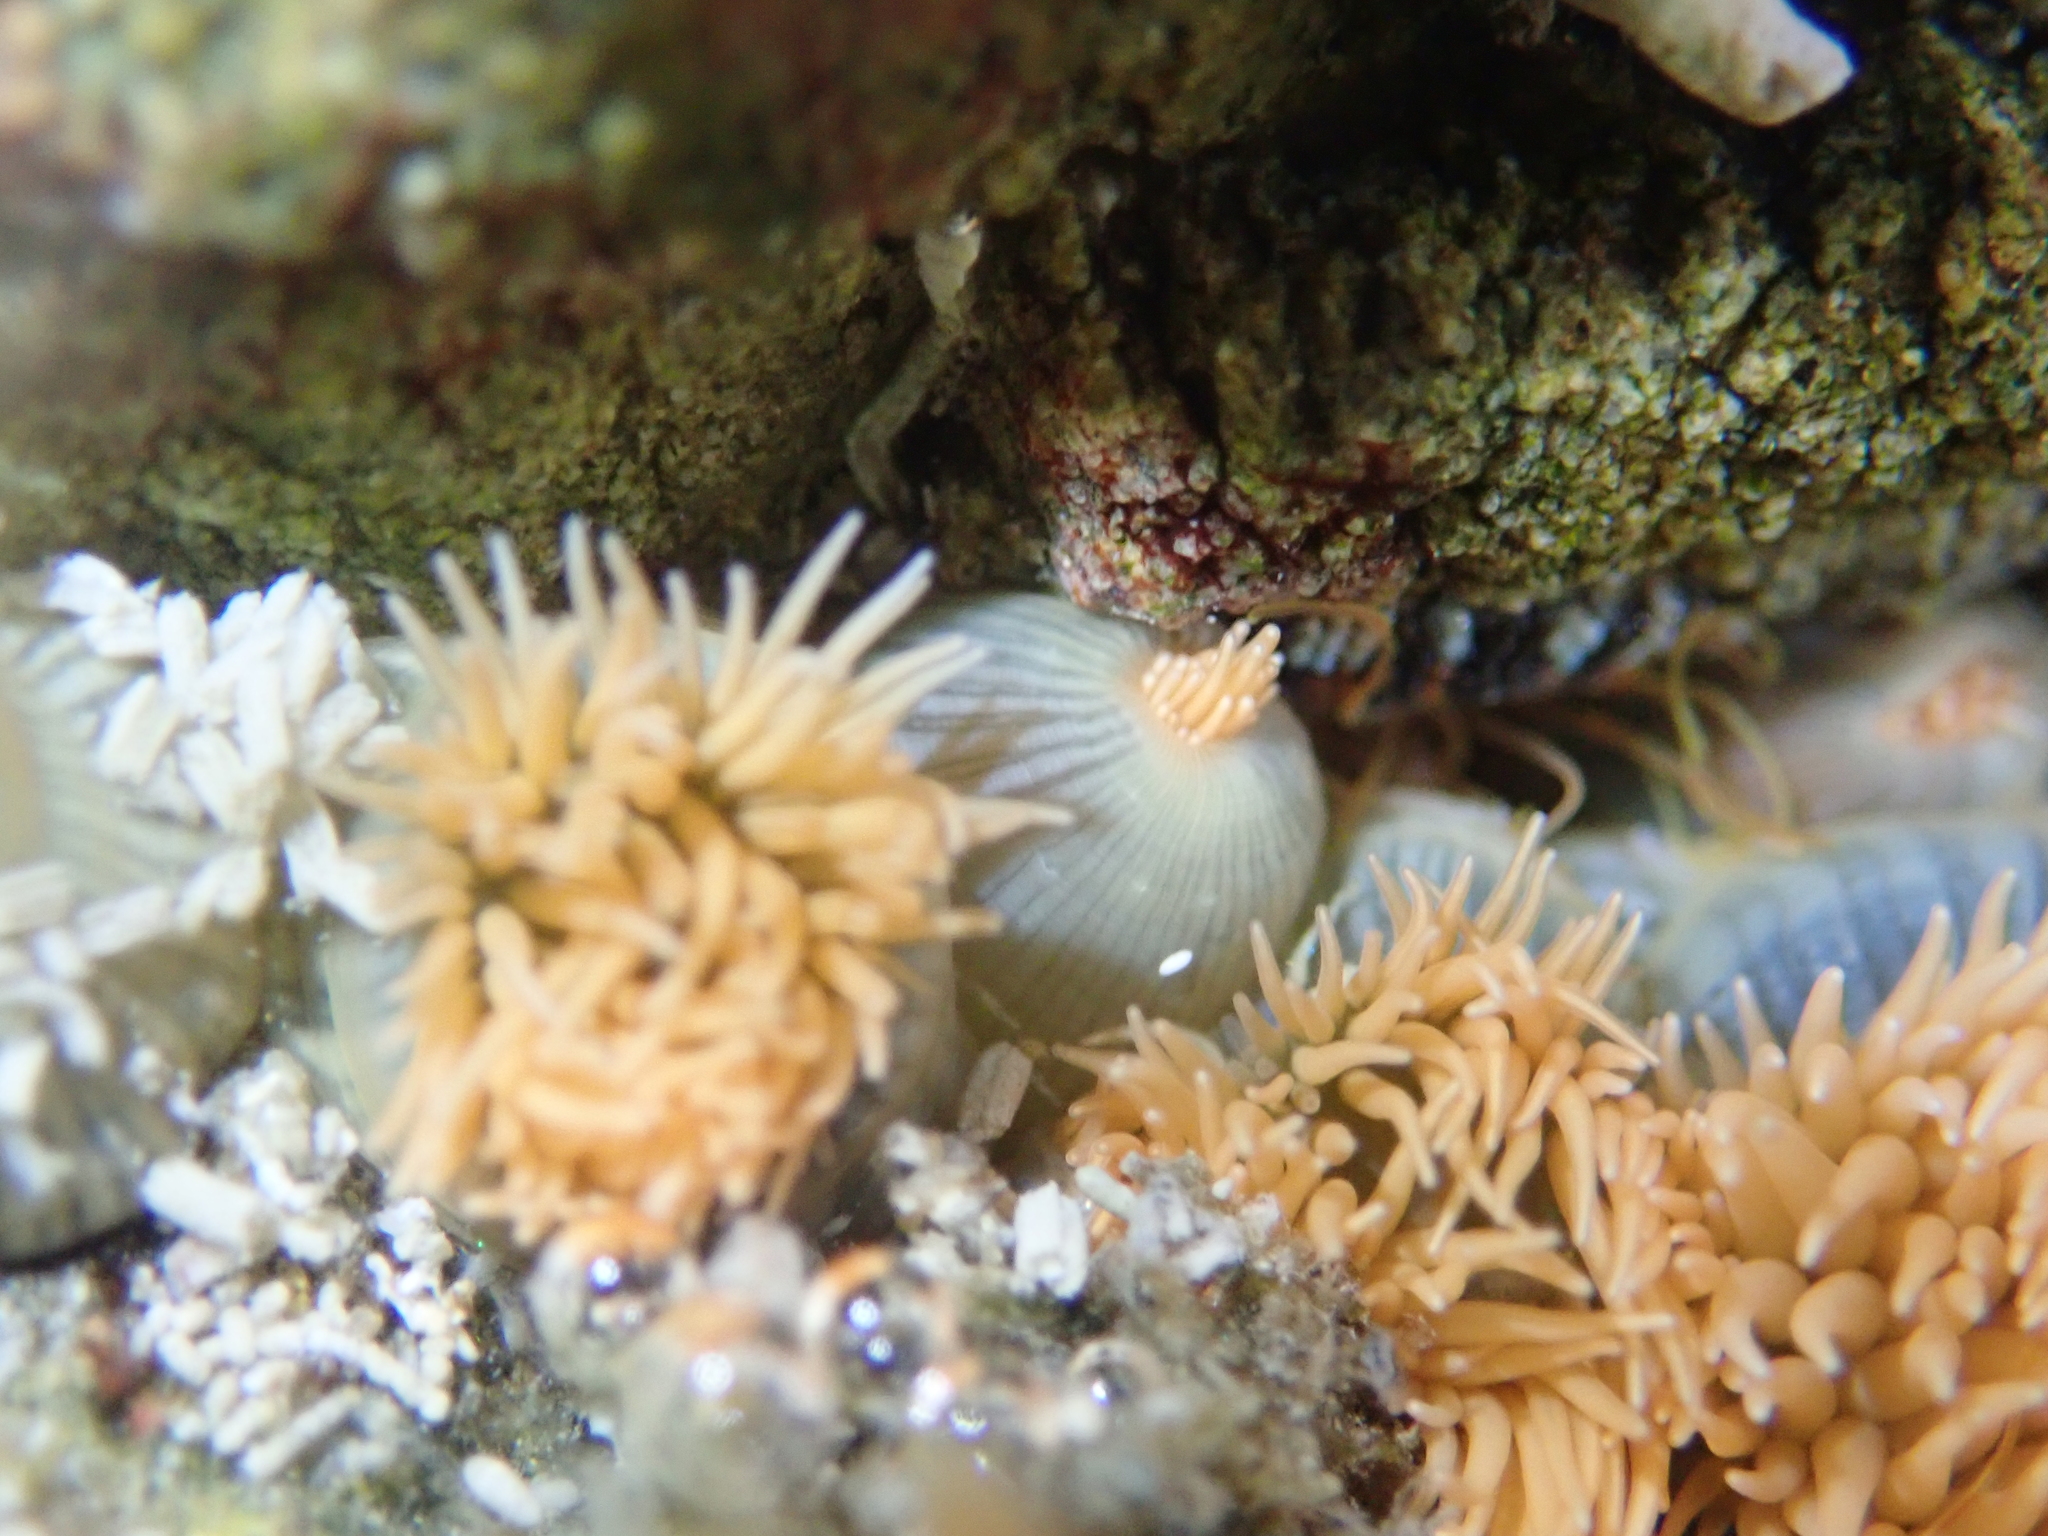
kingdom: Animalia
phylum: Cnidaria
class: Anthozoa
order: Actiniaria
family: Diadumenidae
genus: Diadumene
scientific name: Diadumene neozelanica
